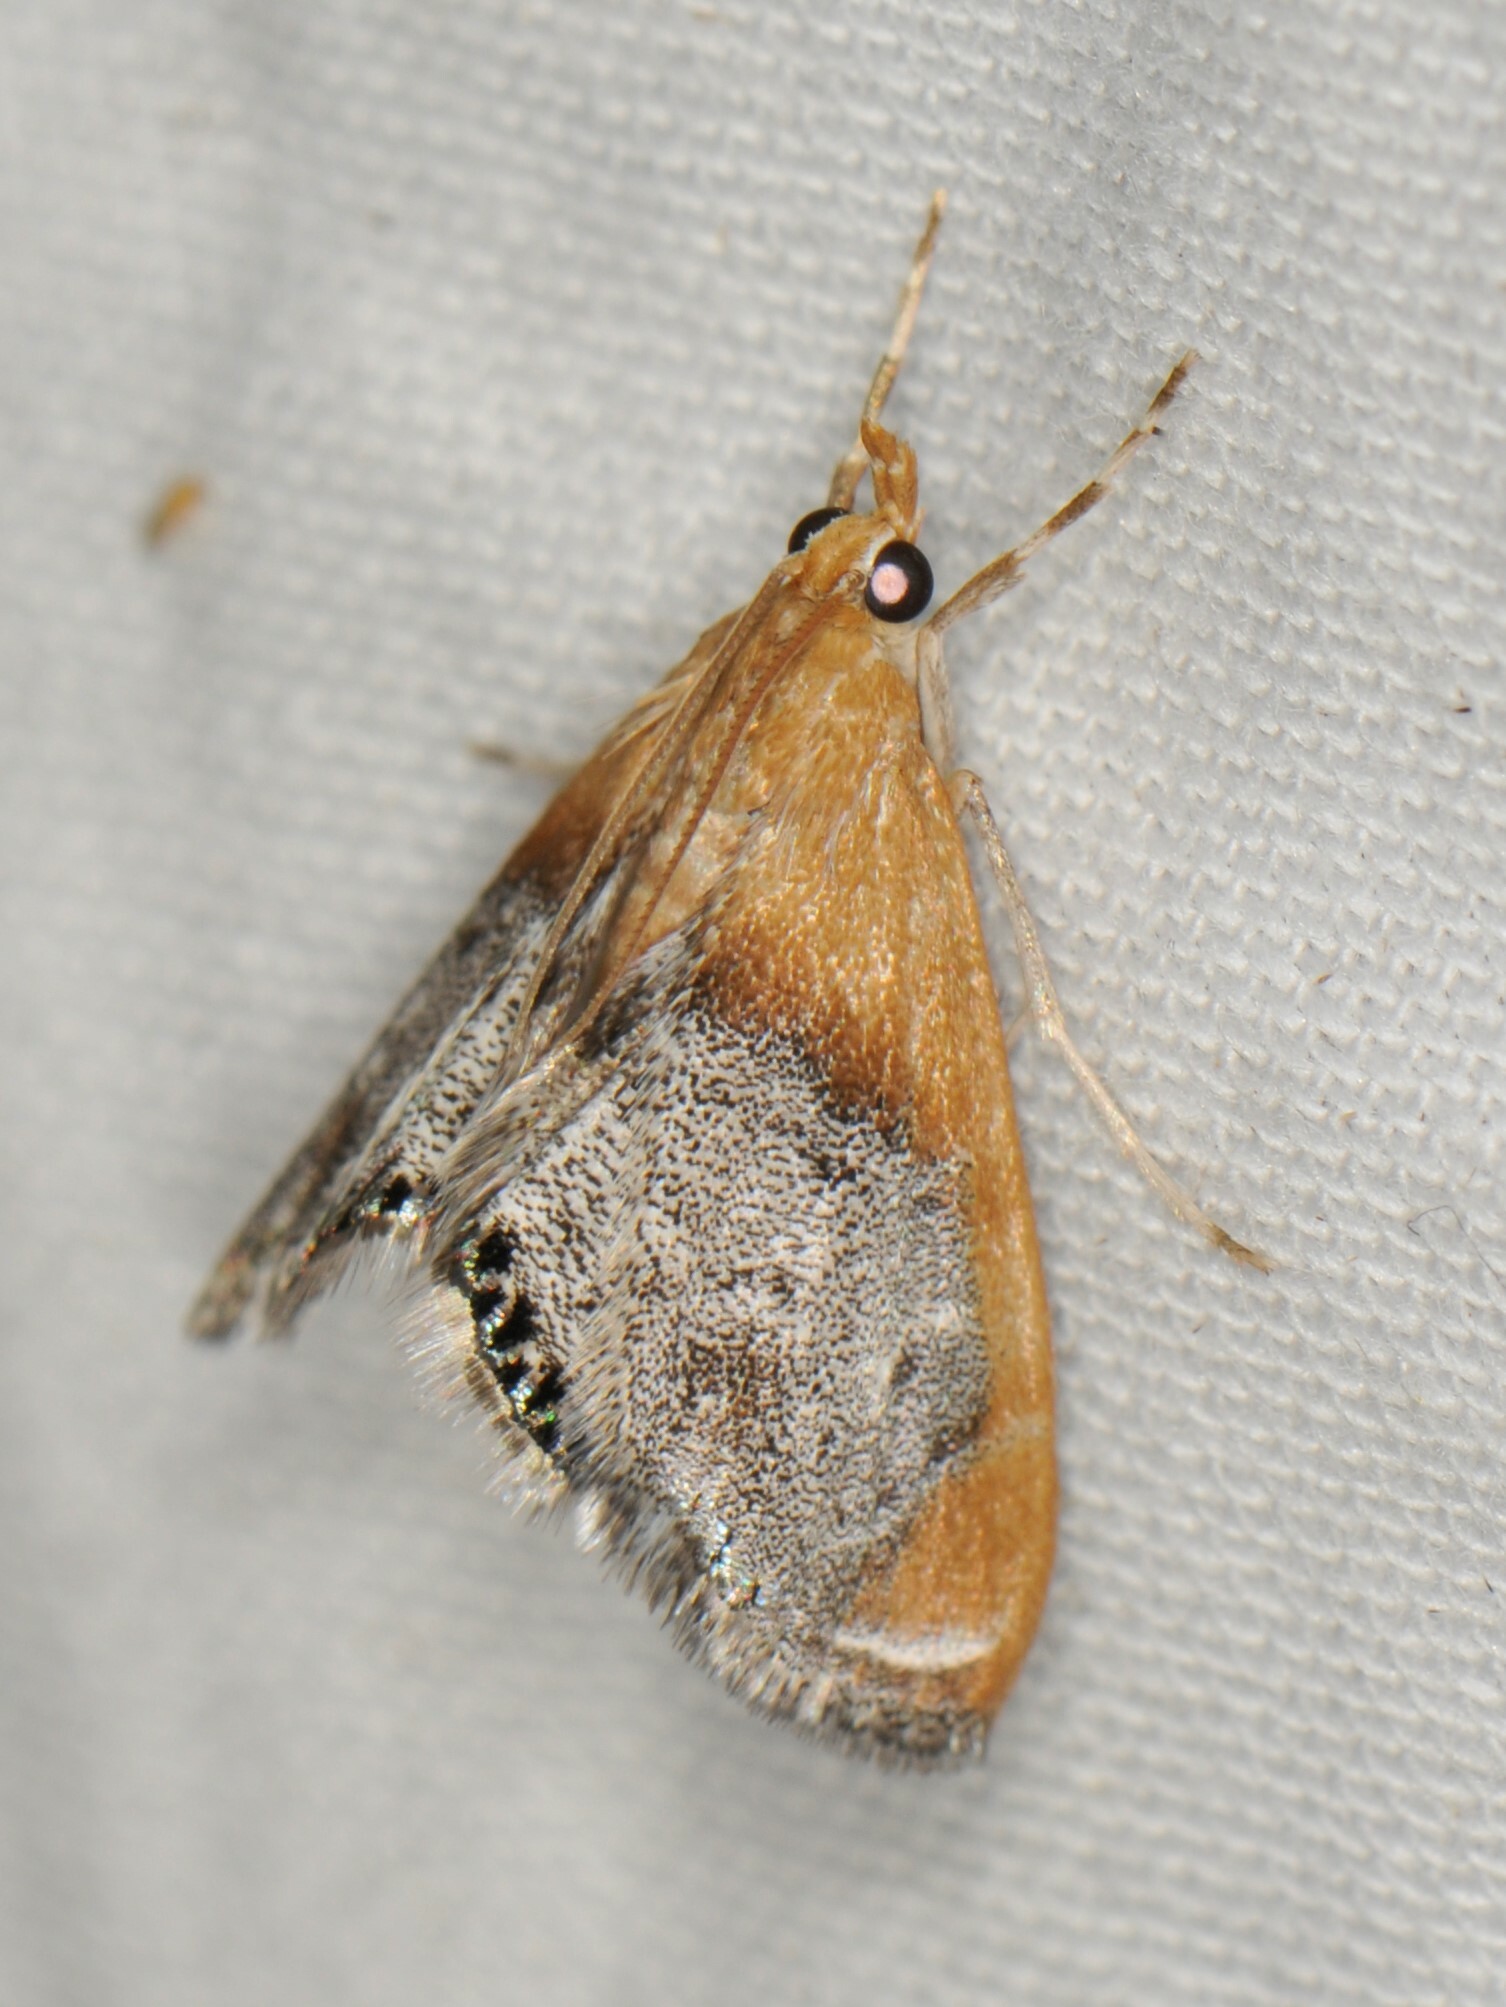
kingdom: Animalia
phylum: Arthropoda
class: Insecta
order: Lepidoptera
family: Crambidae
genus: Chalcoela
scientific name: Chalcoela iphitalis
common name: Sooty-winged chalcoela moth
